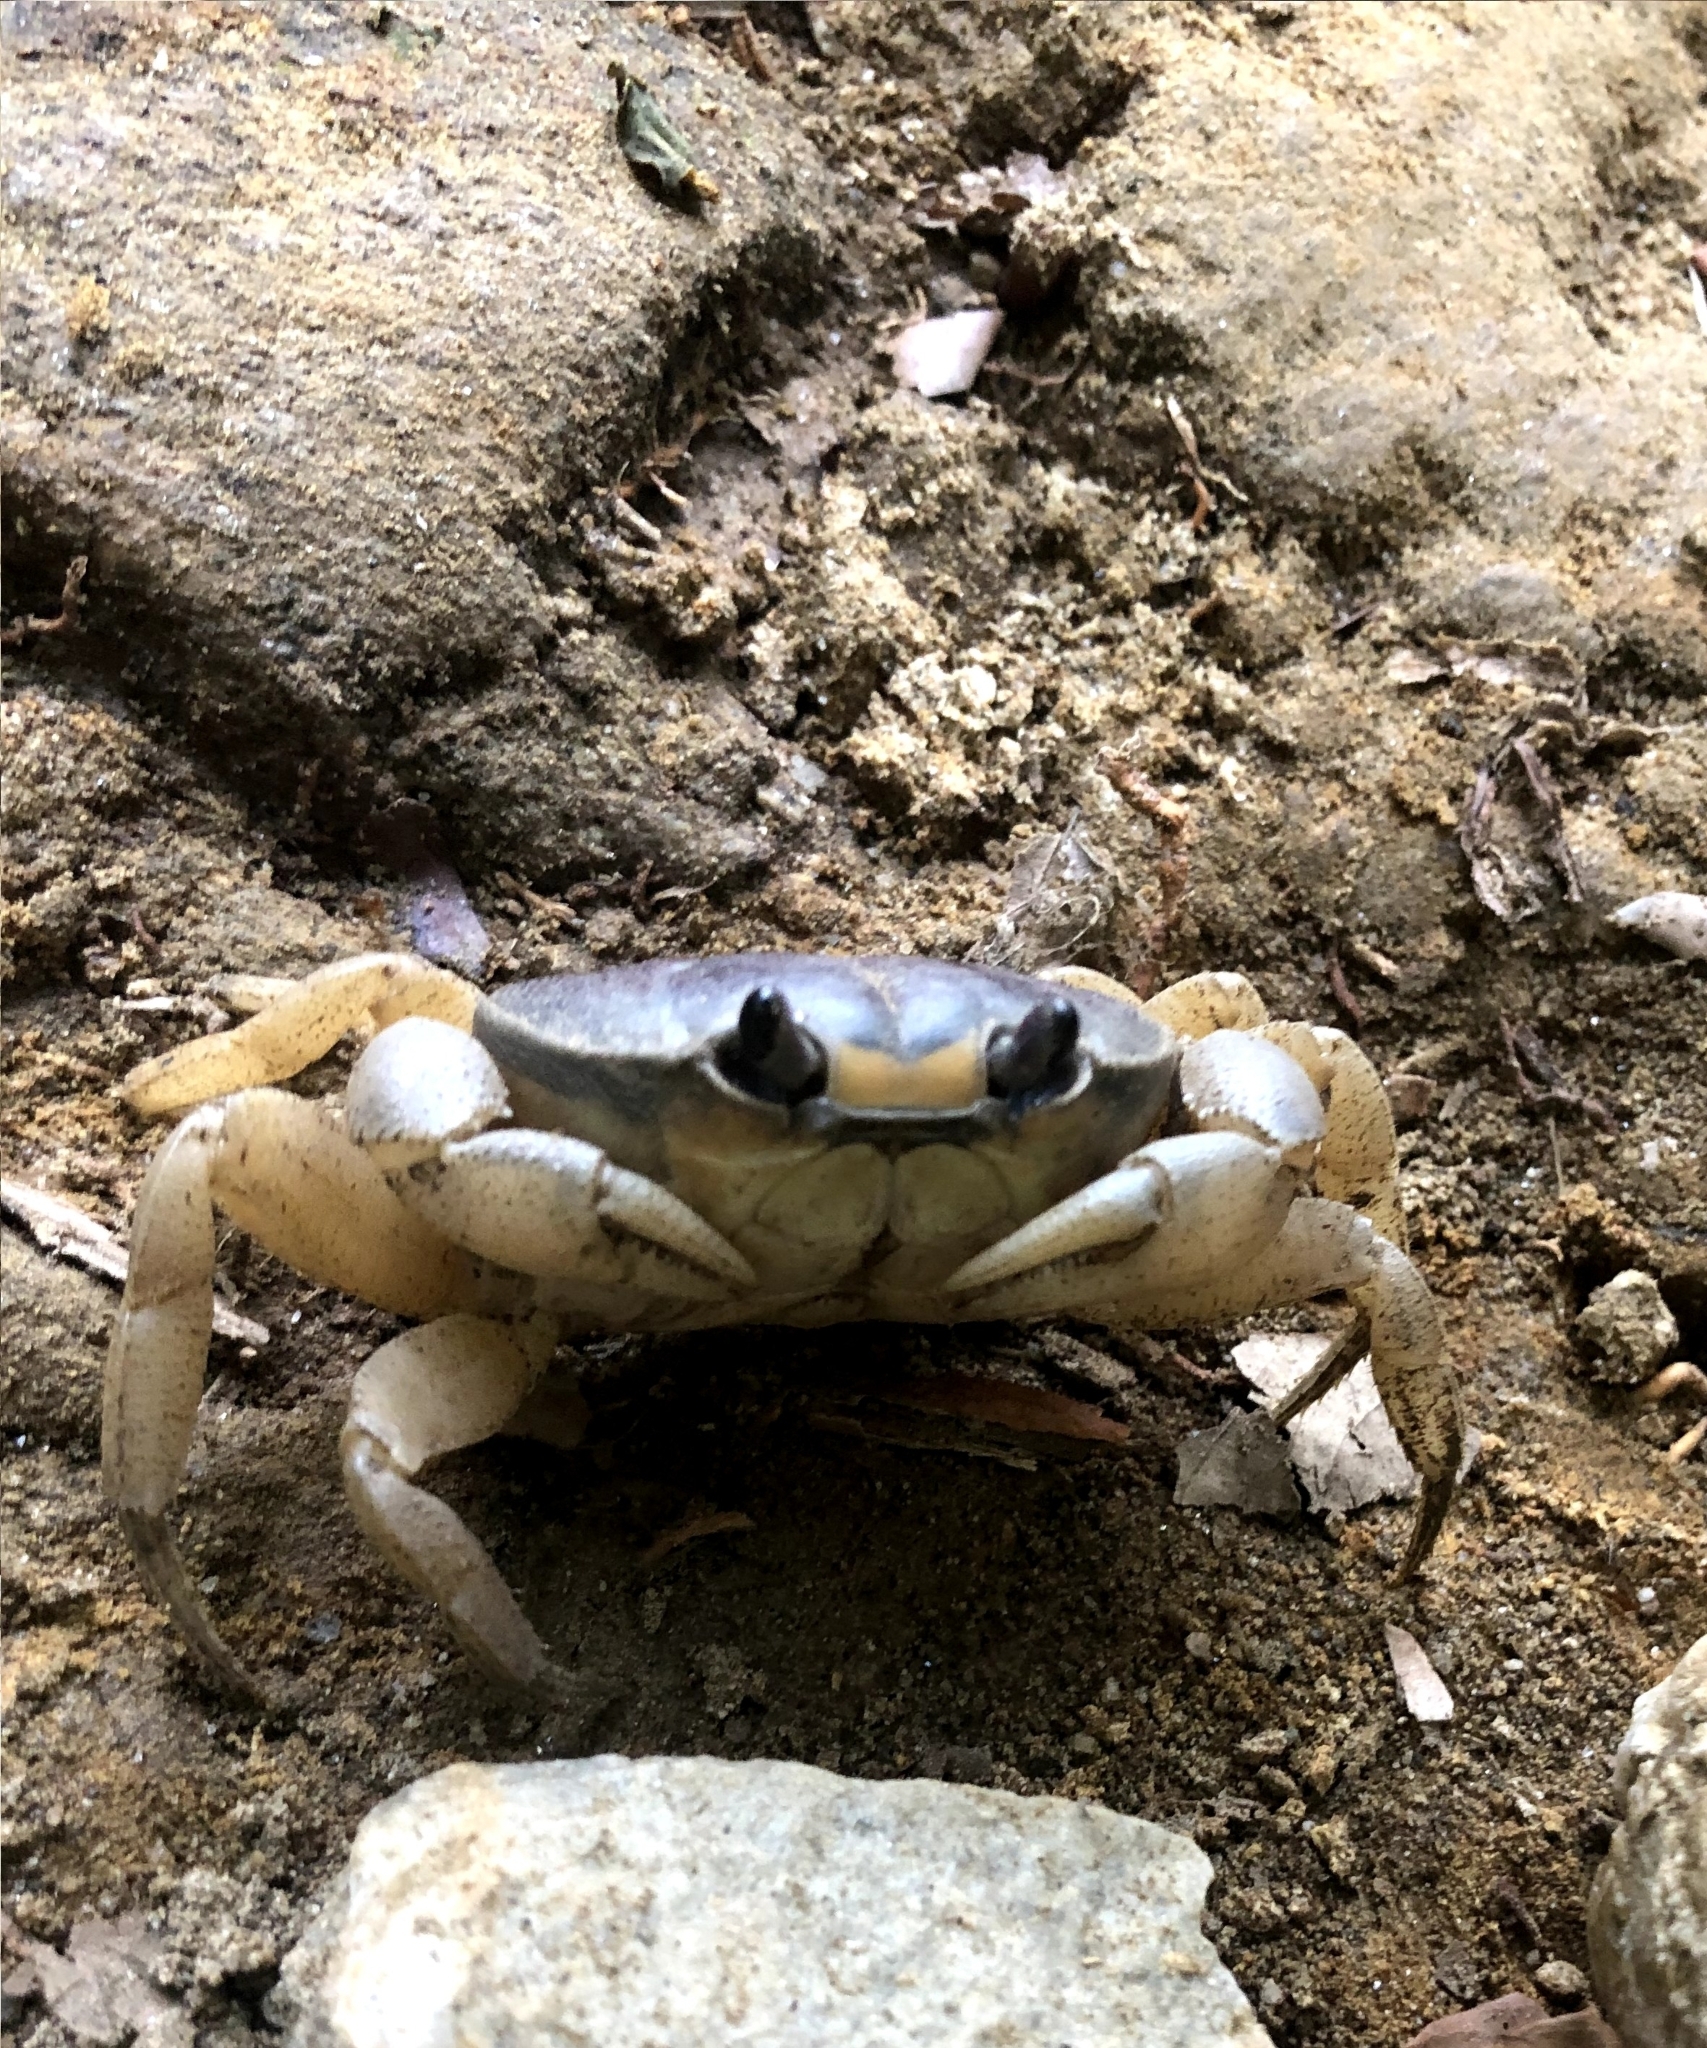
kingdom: Animalia
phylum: Arthropoda
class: Malacostraca
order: Decapoda
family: Gecarcinidae
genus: Gecarcinus
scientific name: Gecarcinus quadratus
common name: Halloween crab
